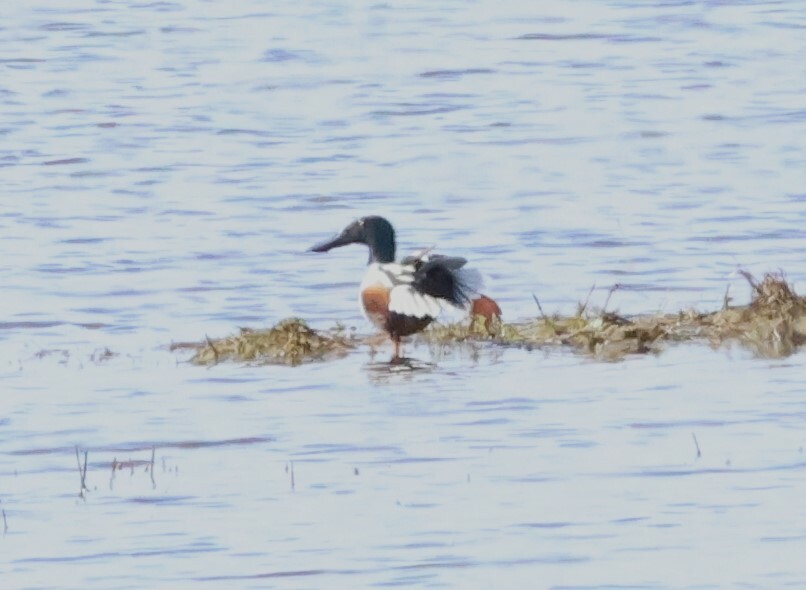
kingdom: Animalia
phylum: Chordata
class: Aves
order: Anseriformes
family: Anatidae
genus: Spatula
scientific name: Spatula clypeata
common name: Northern shoveler
